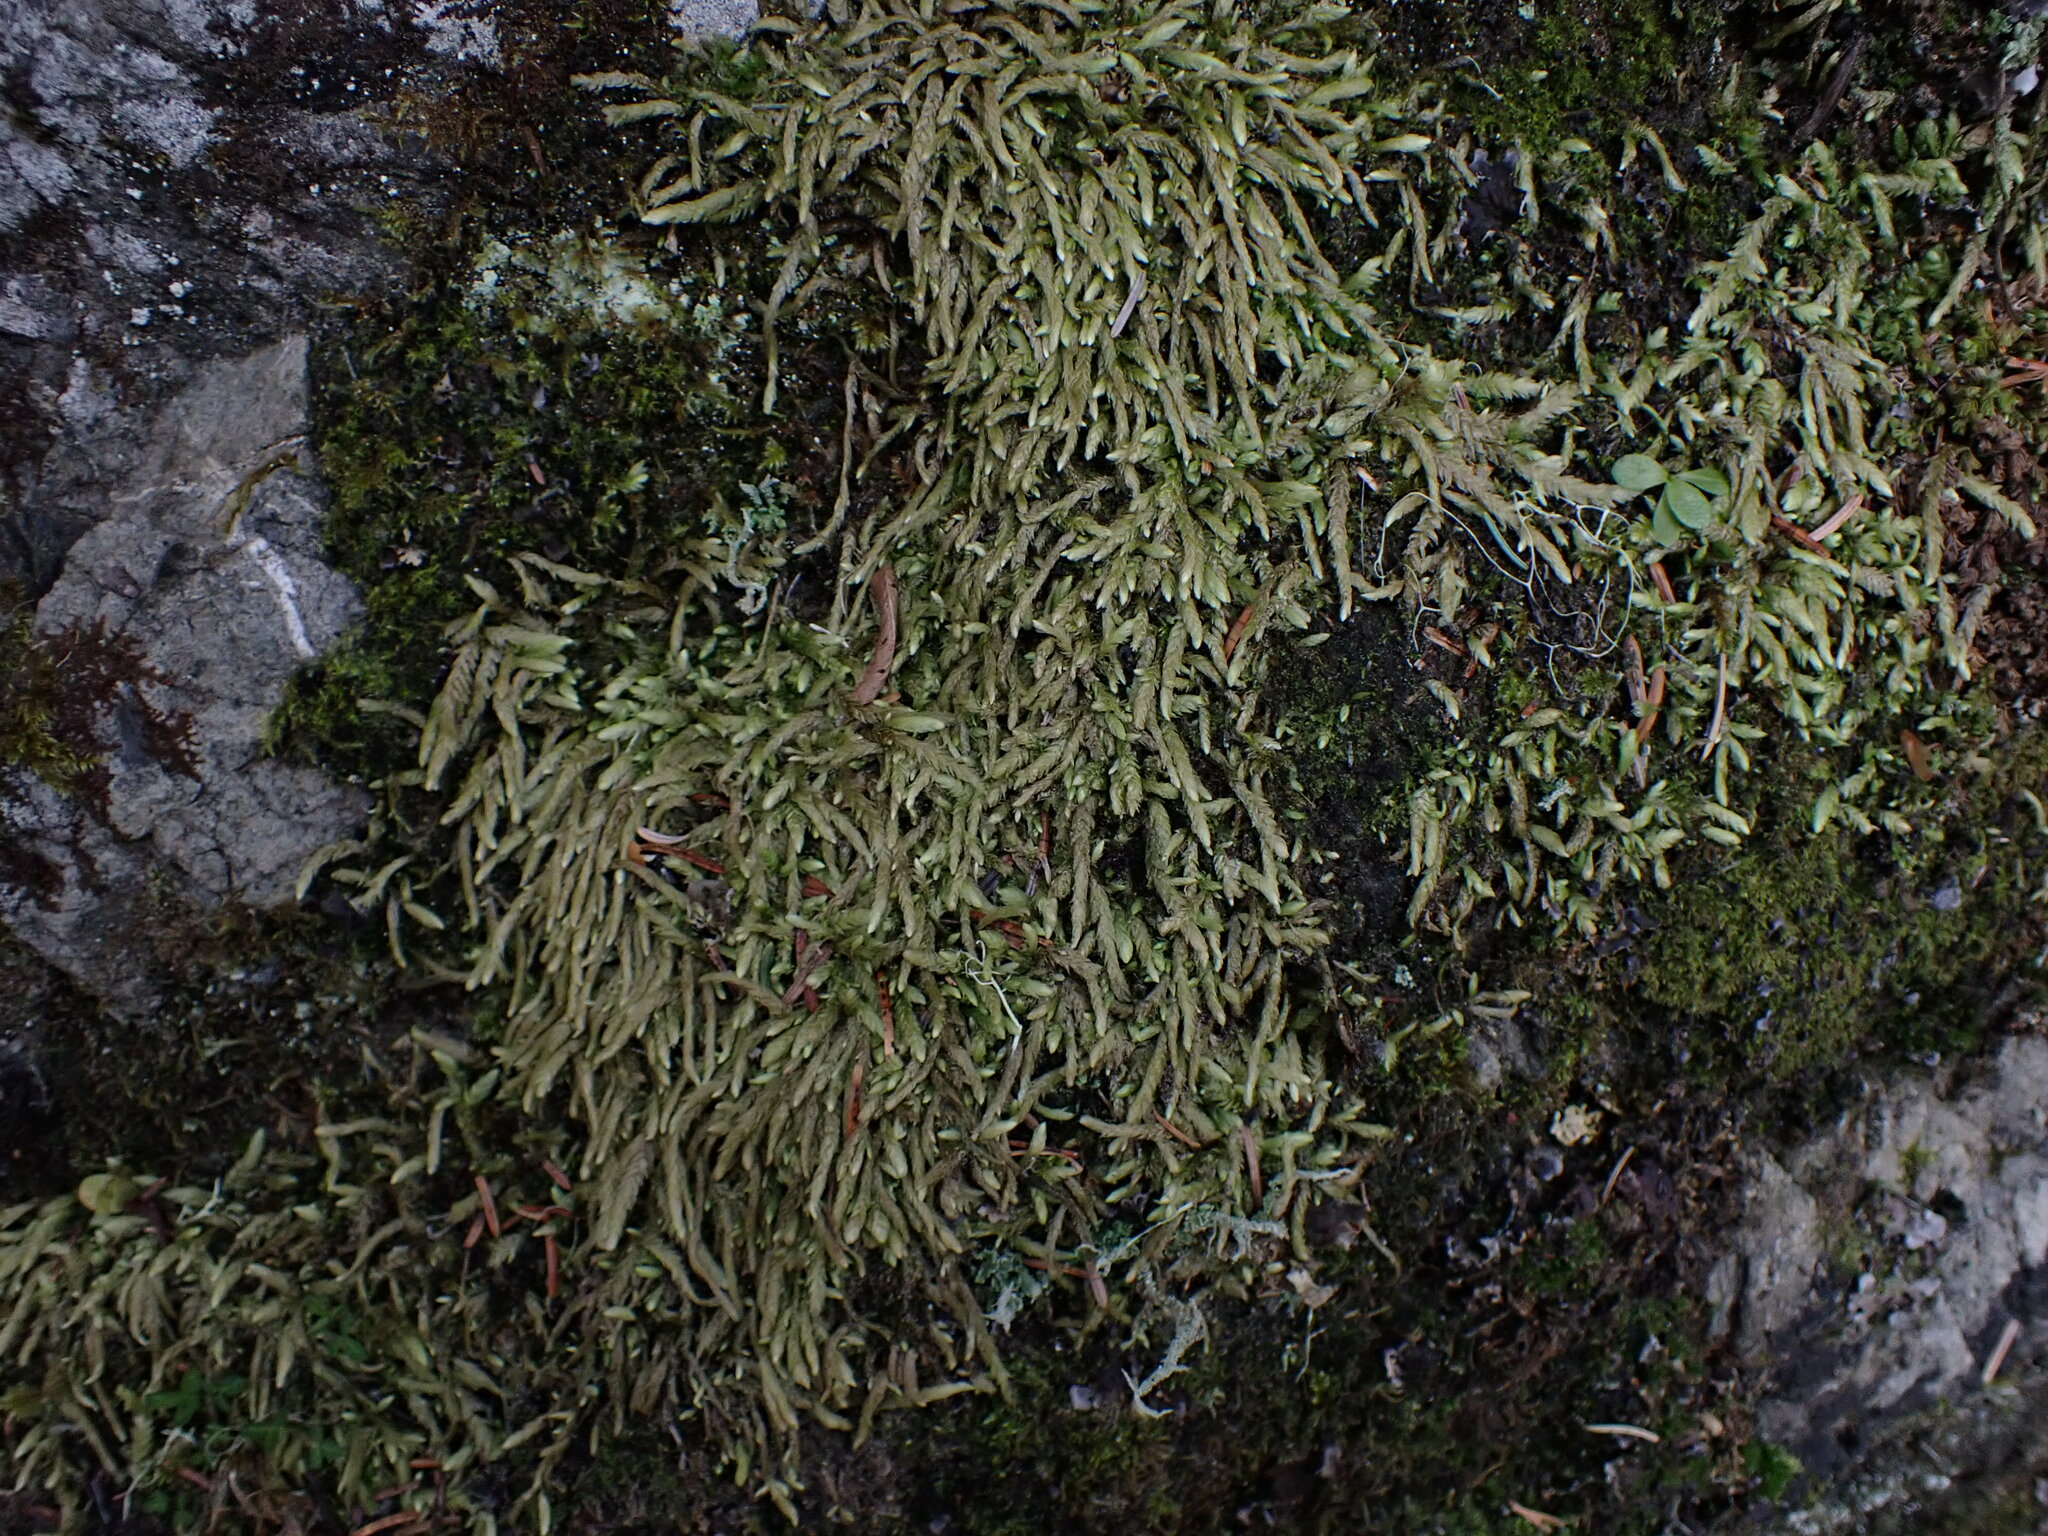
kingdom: Plantae
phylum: Bryophyta
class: Bryopsida
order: Hypnales
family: Plagiotheciaceae
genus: Plagiothecium
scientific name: Plagiothecium undulatum
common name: Waved silk-moss
